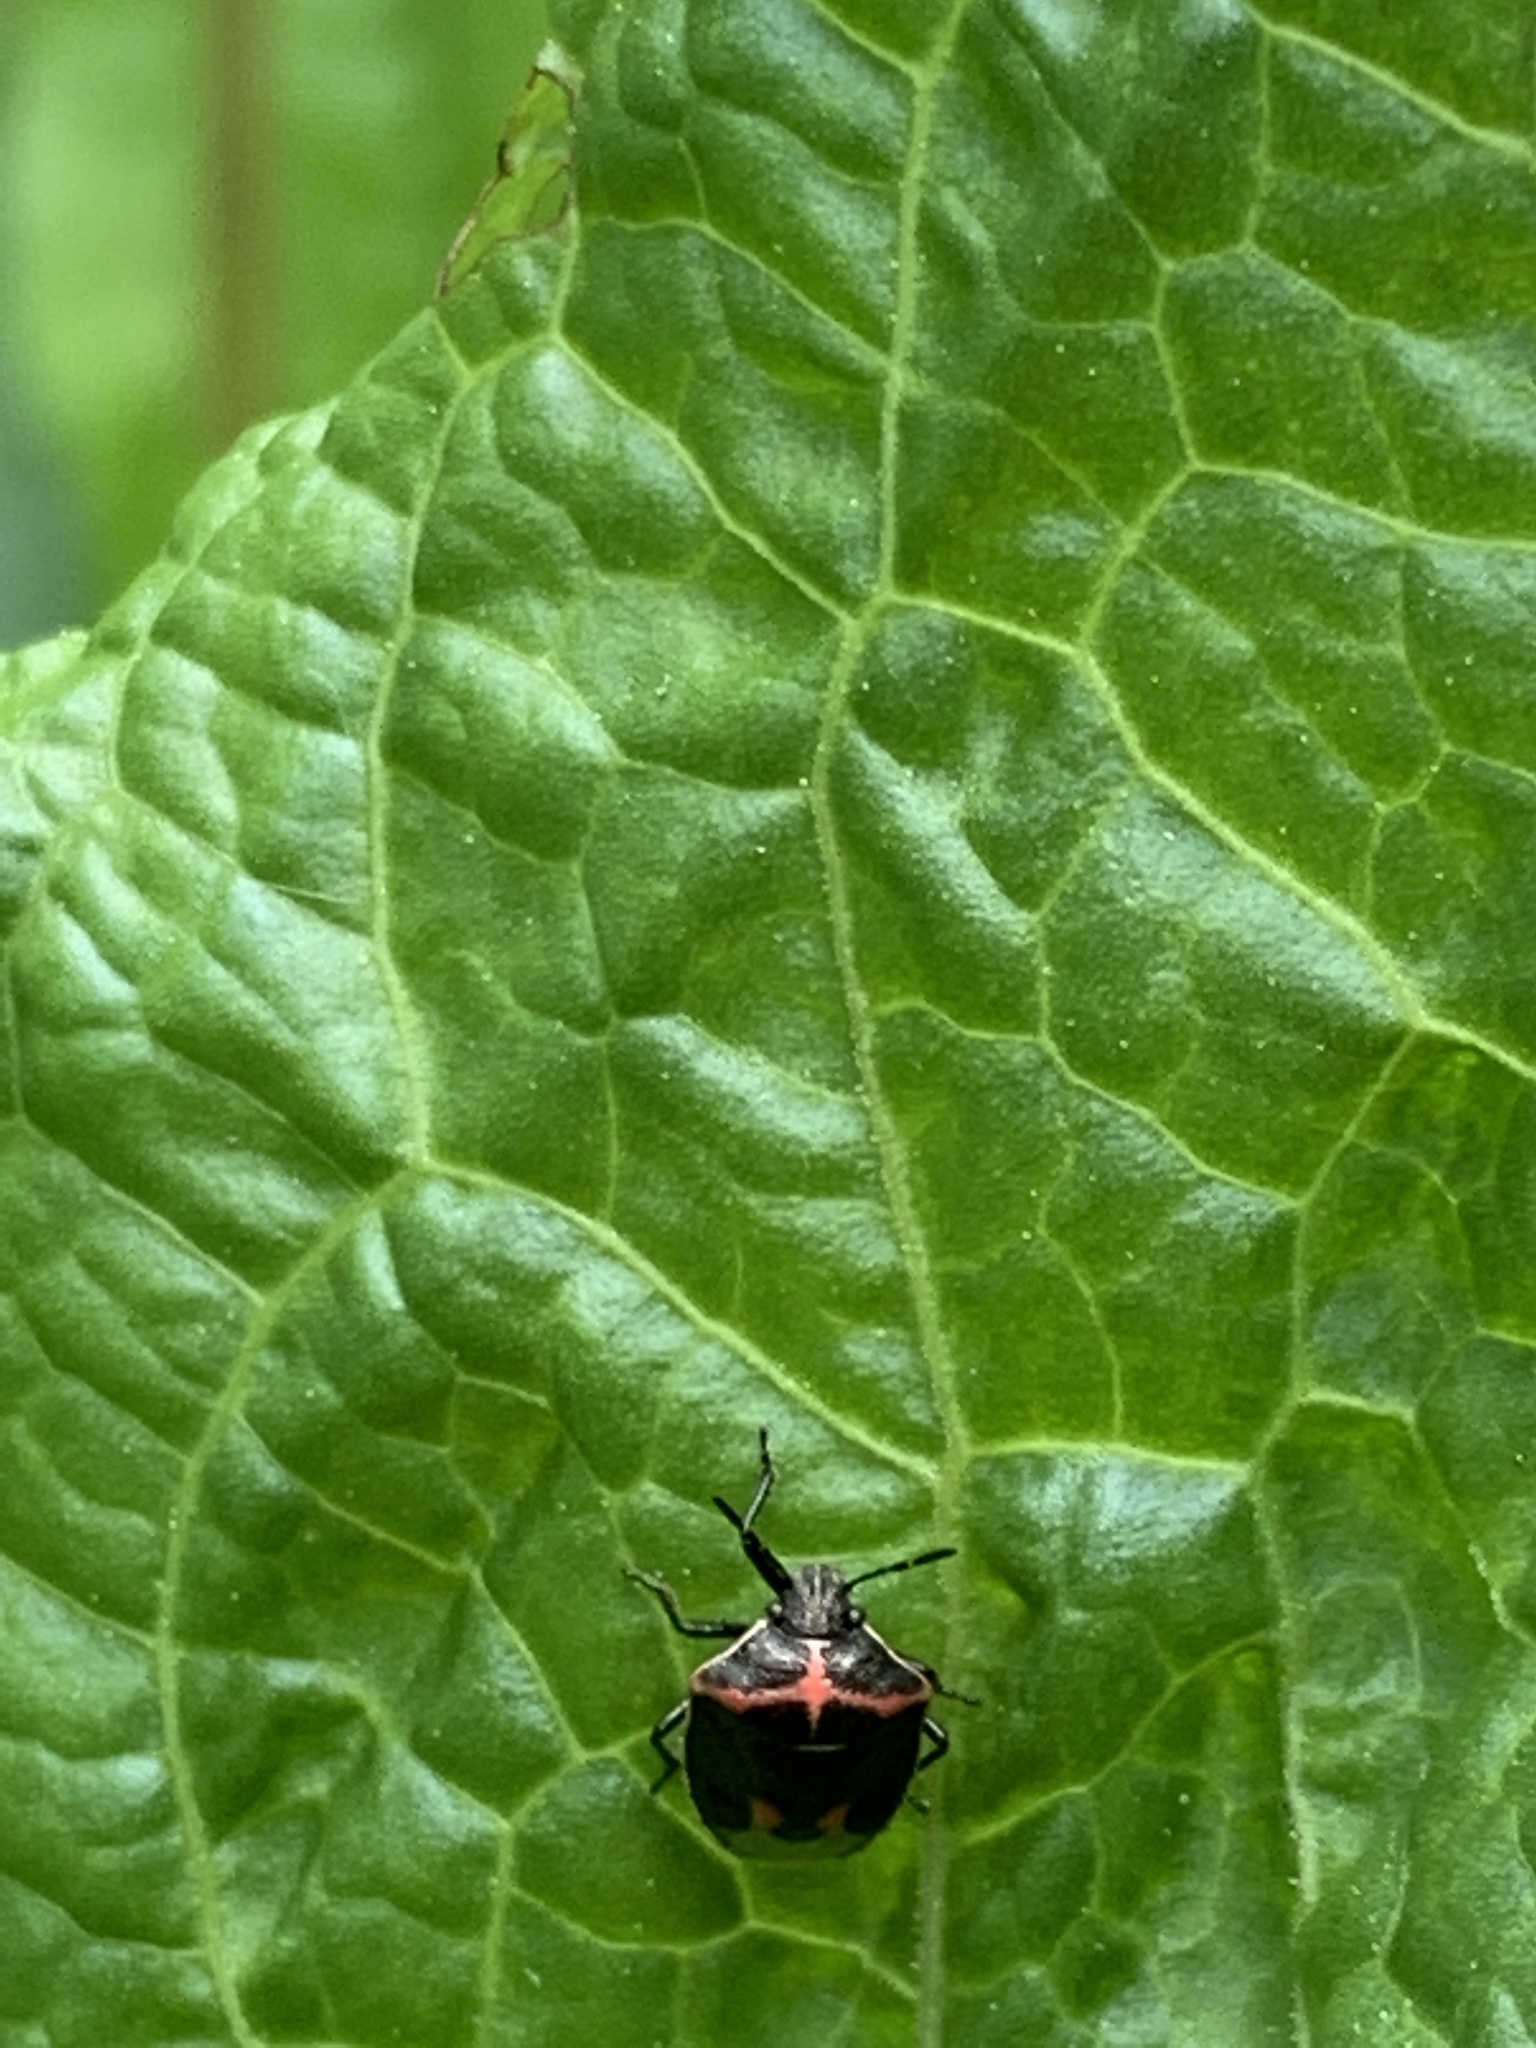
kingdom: Animalia
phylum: Arthropoda
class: Insecta
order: Hemiptera
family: Pentatomidae
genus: Cosmopepla
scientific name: Cosmopepla lintneriana
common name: Twice-stabbed stink bug
